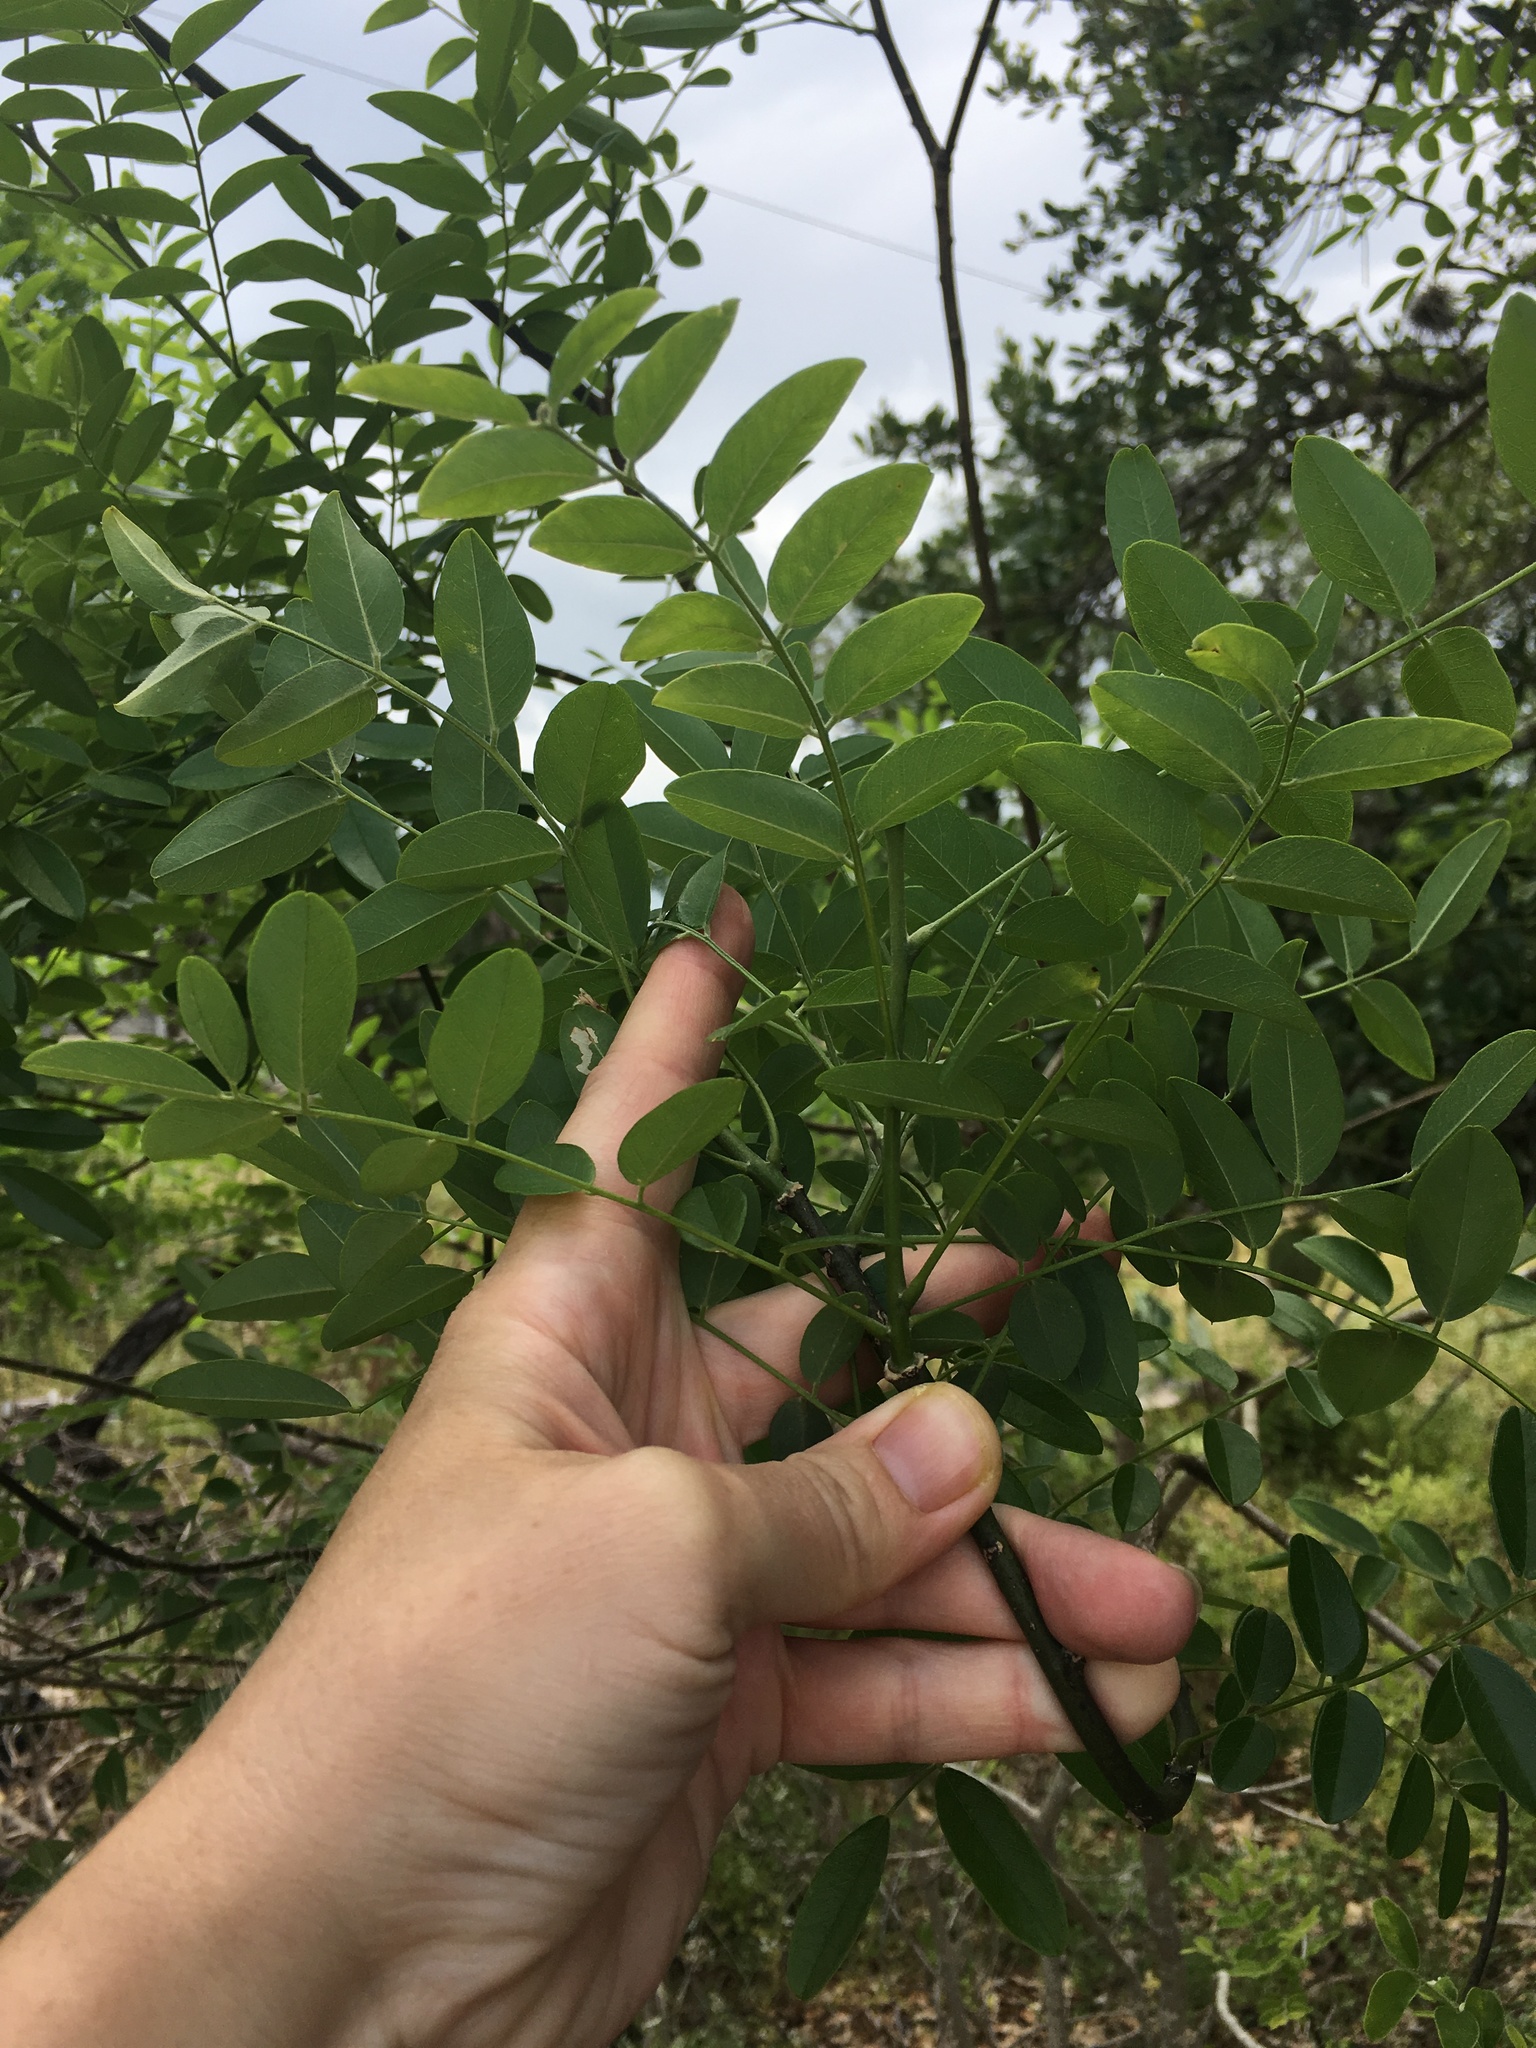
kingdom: Plantae
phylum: Tracheophyta
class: Magnoliopsida
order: Fabales
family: Fabaceae
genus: Styphnolobium
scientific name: Styphnolobium affine
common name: Texas sophora
